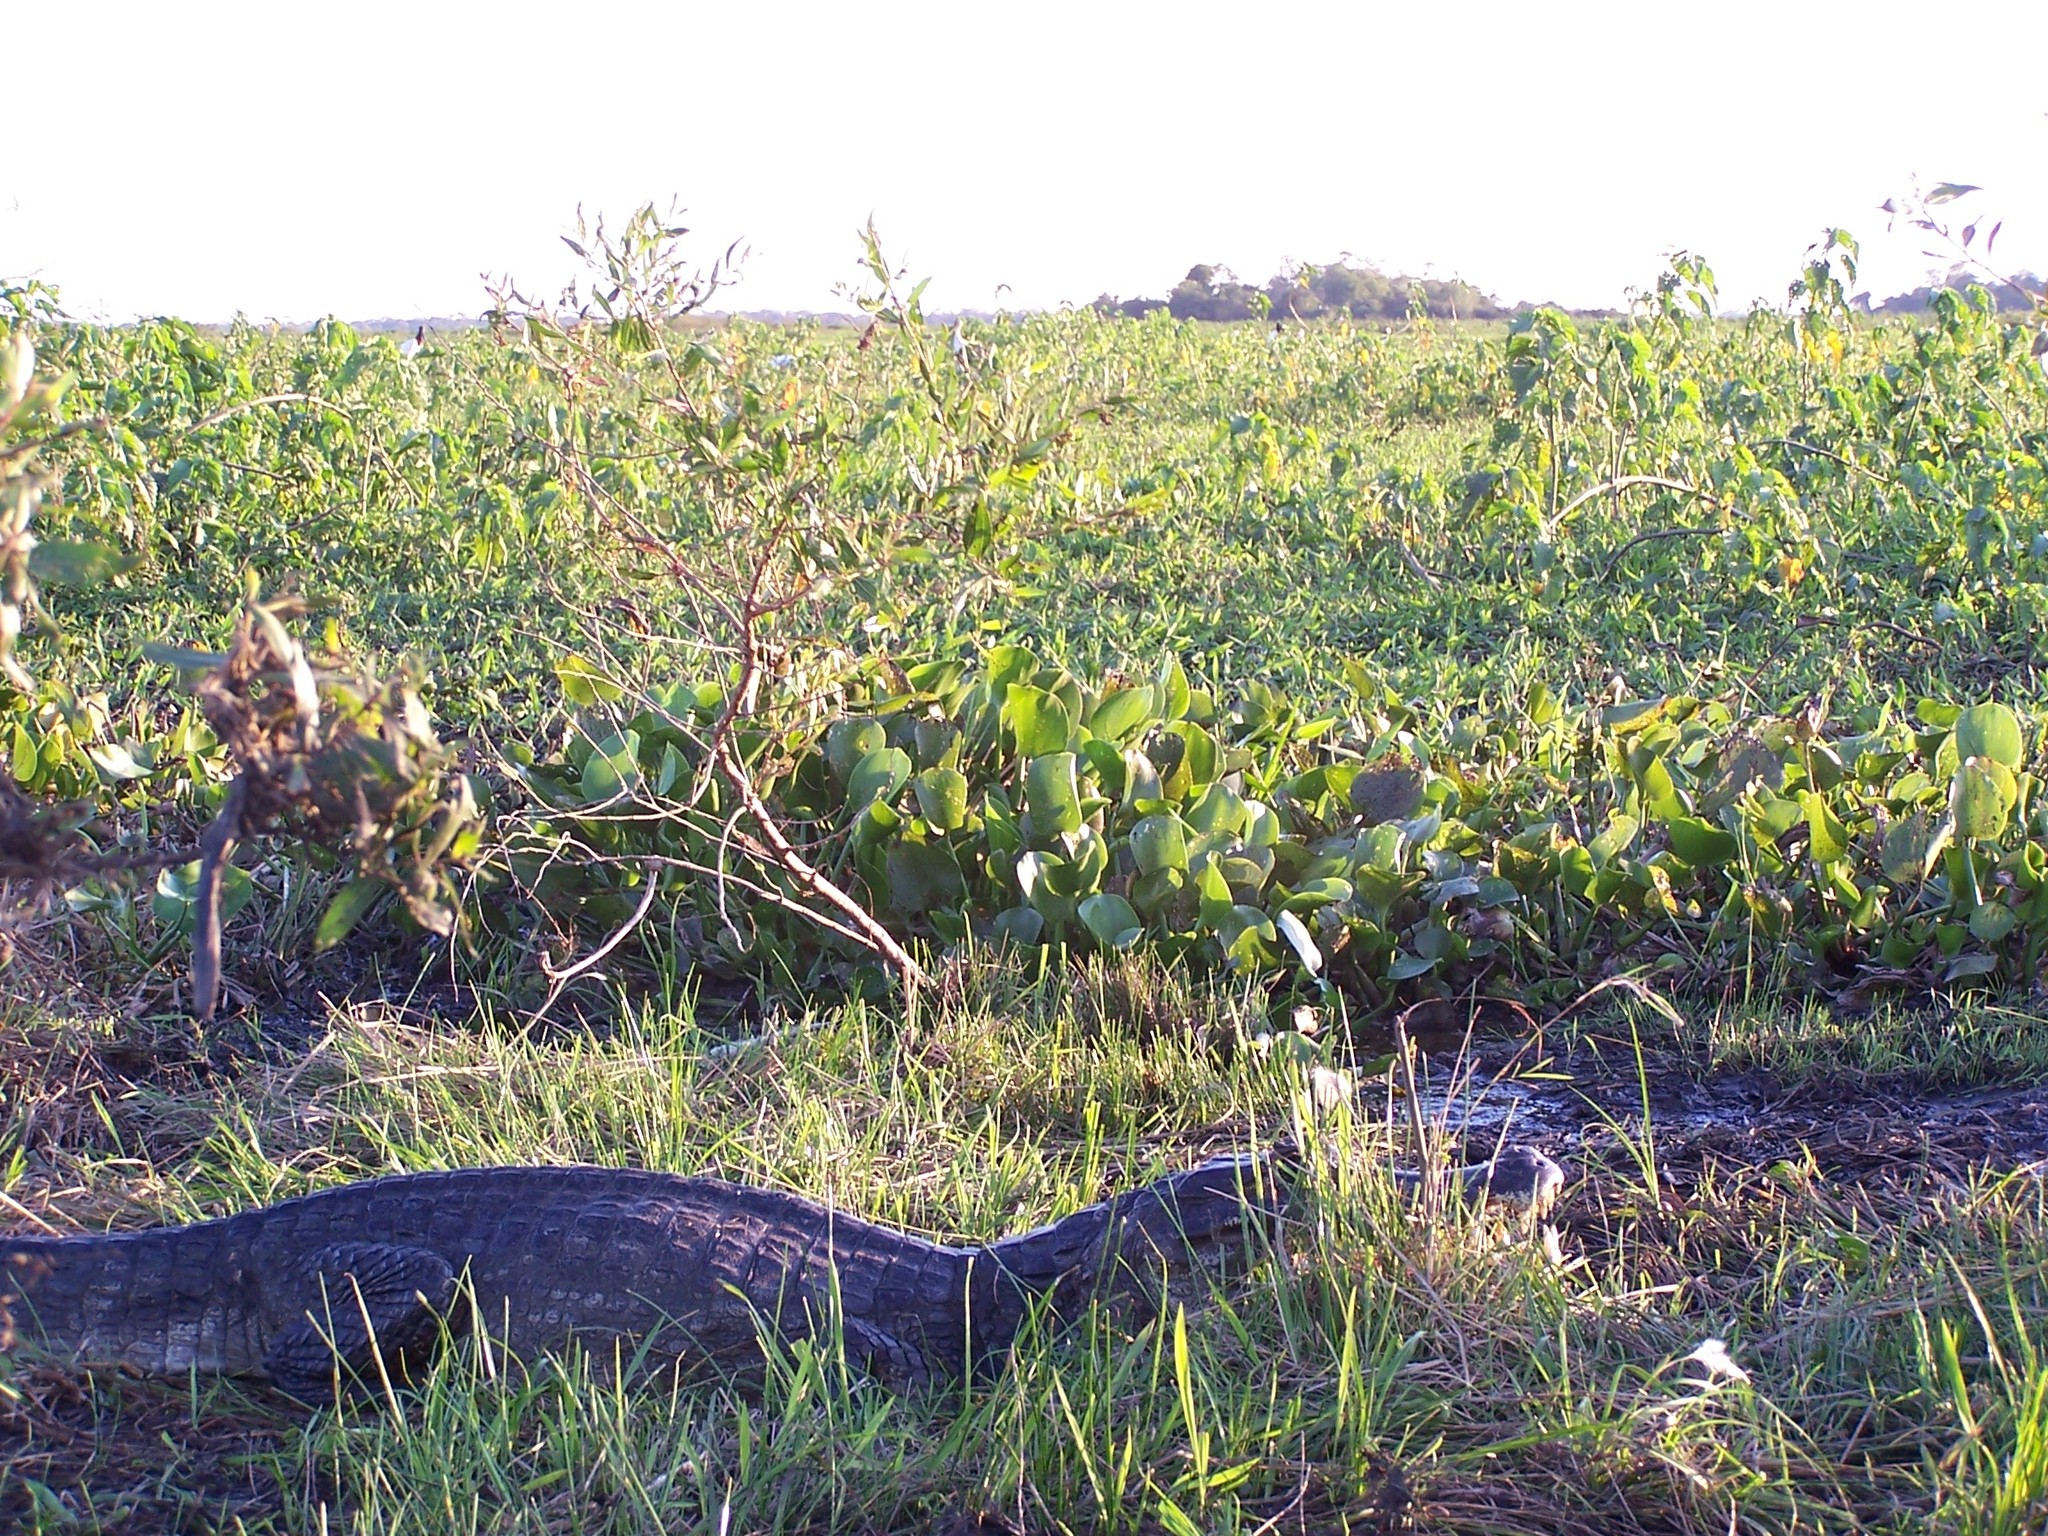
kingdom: Animalia
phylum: Chordata
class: Crocodylia
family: Alligatoridae
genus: Caiman
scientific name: Caiman yacare
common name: Yacare caiman
